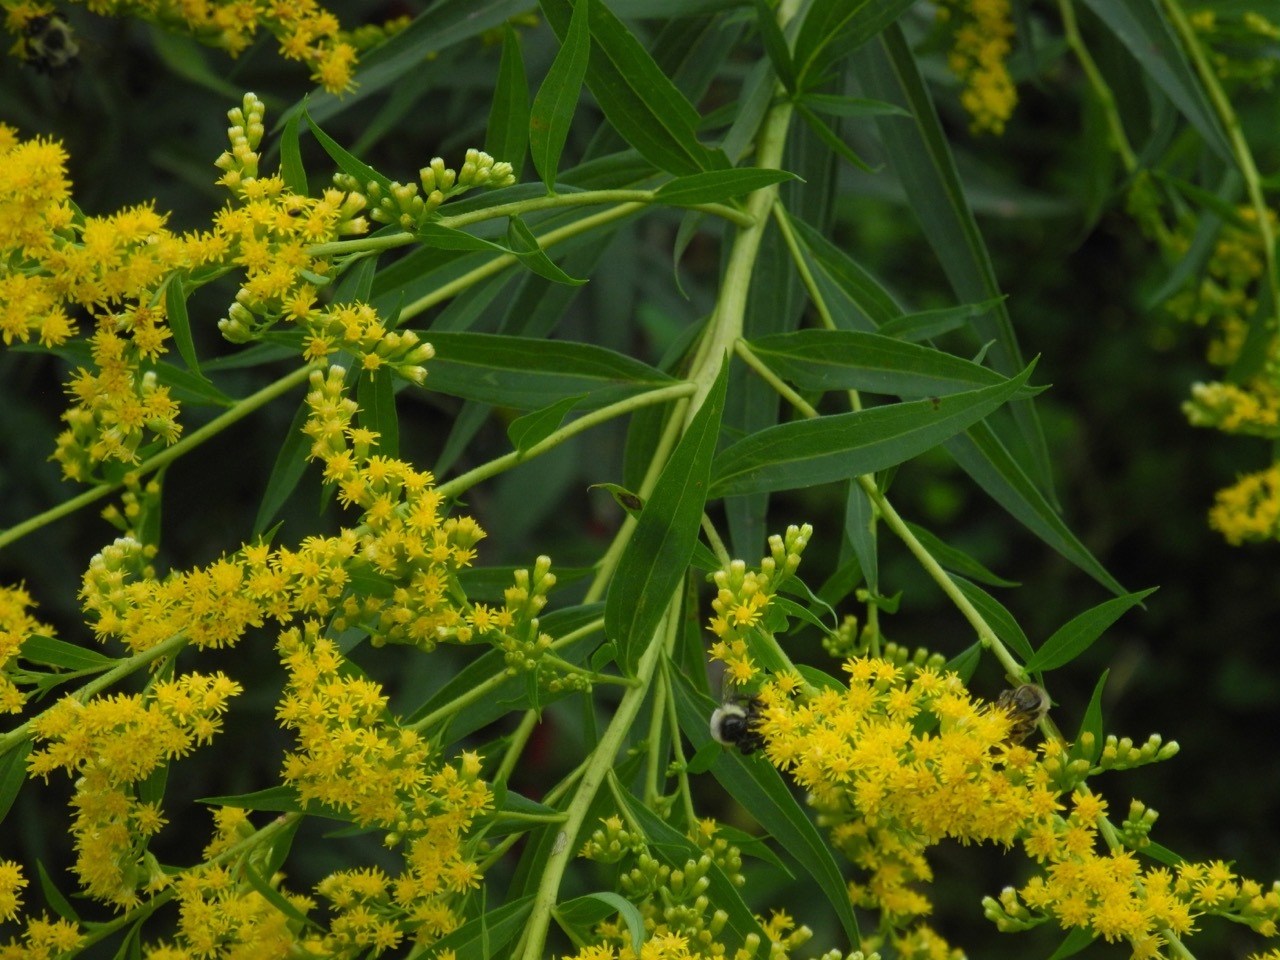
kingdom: Plantae
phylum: Tracheophyta
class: Magnoliopsida
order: Asterales
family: Asteraceae
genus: Solidago
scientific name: Solidago altissima
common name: Late goldenrod
